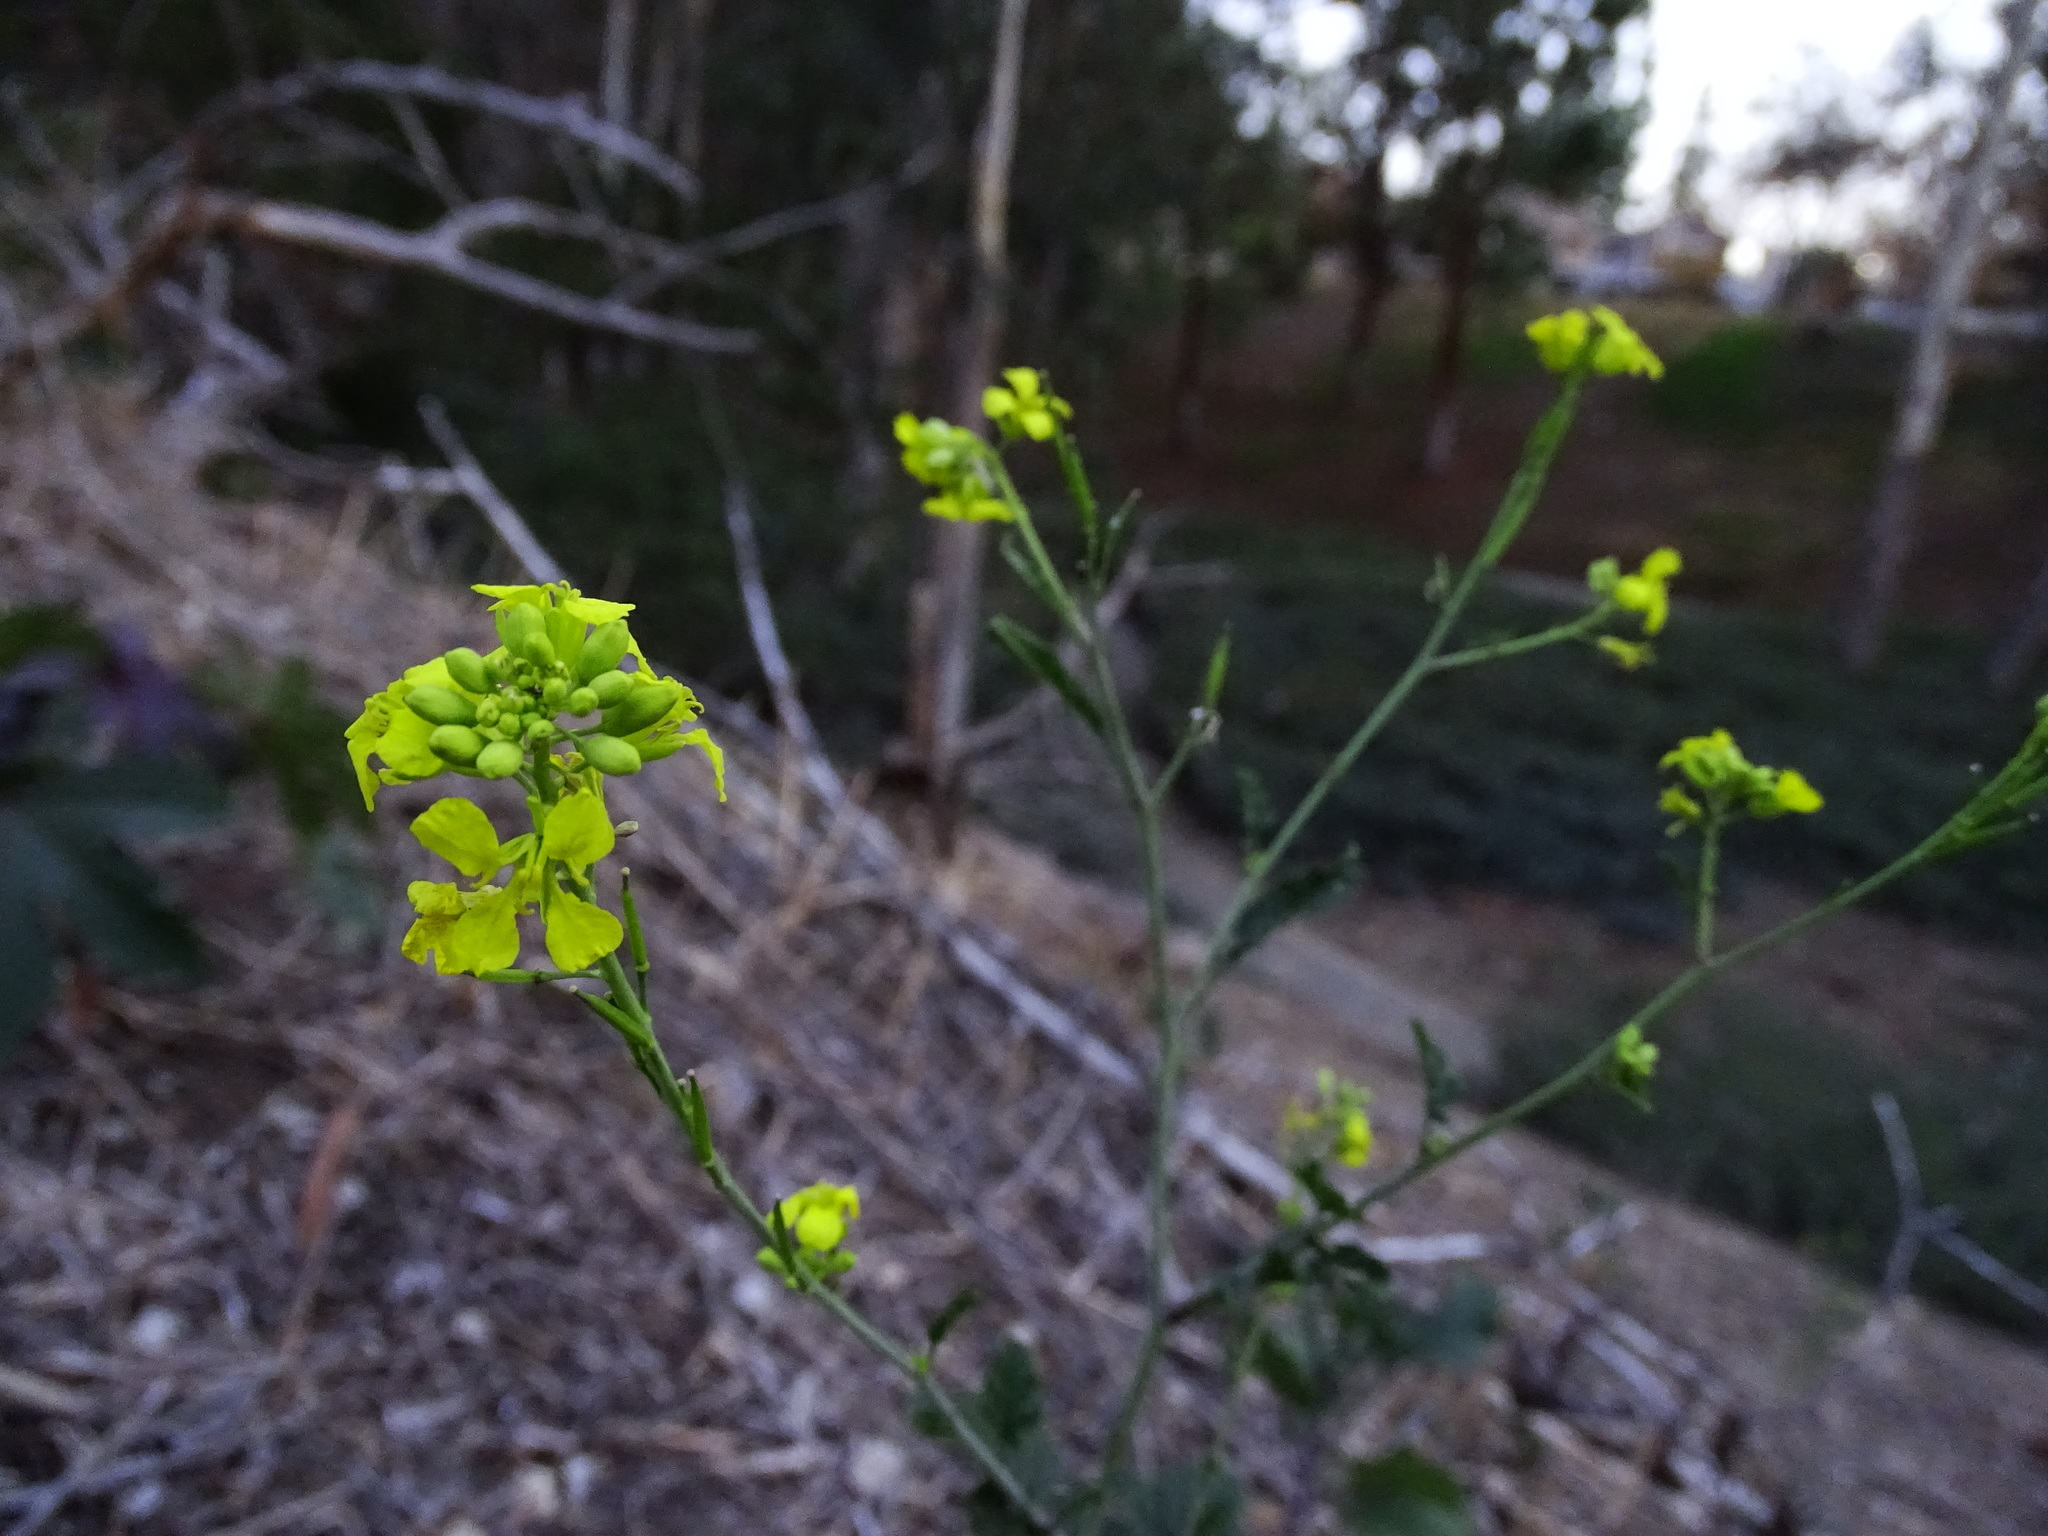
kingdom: Plantae
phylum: Tracheophyta
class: Magnoliopsida
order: Brassicales
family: Brassicaceae
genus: Brassica
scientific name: Brassica nigra
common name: Black mustard
